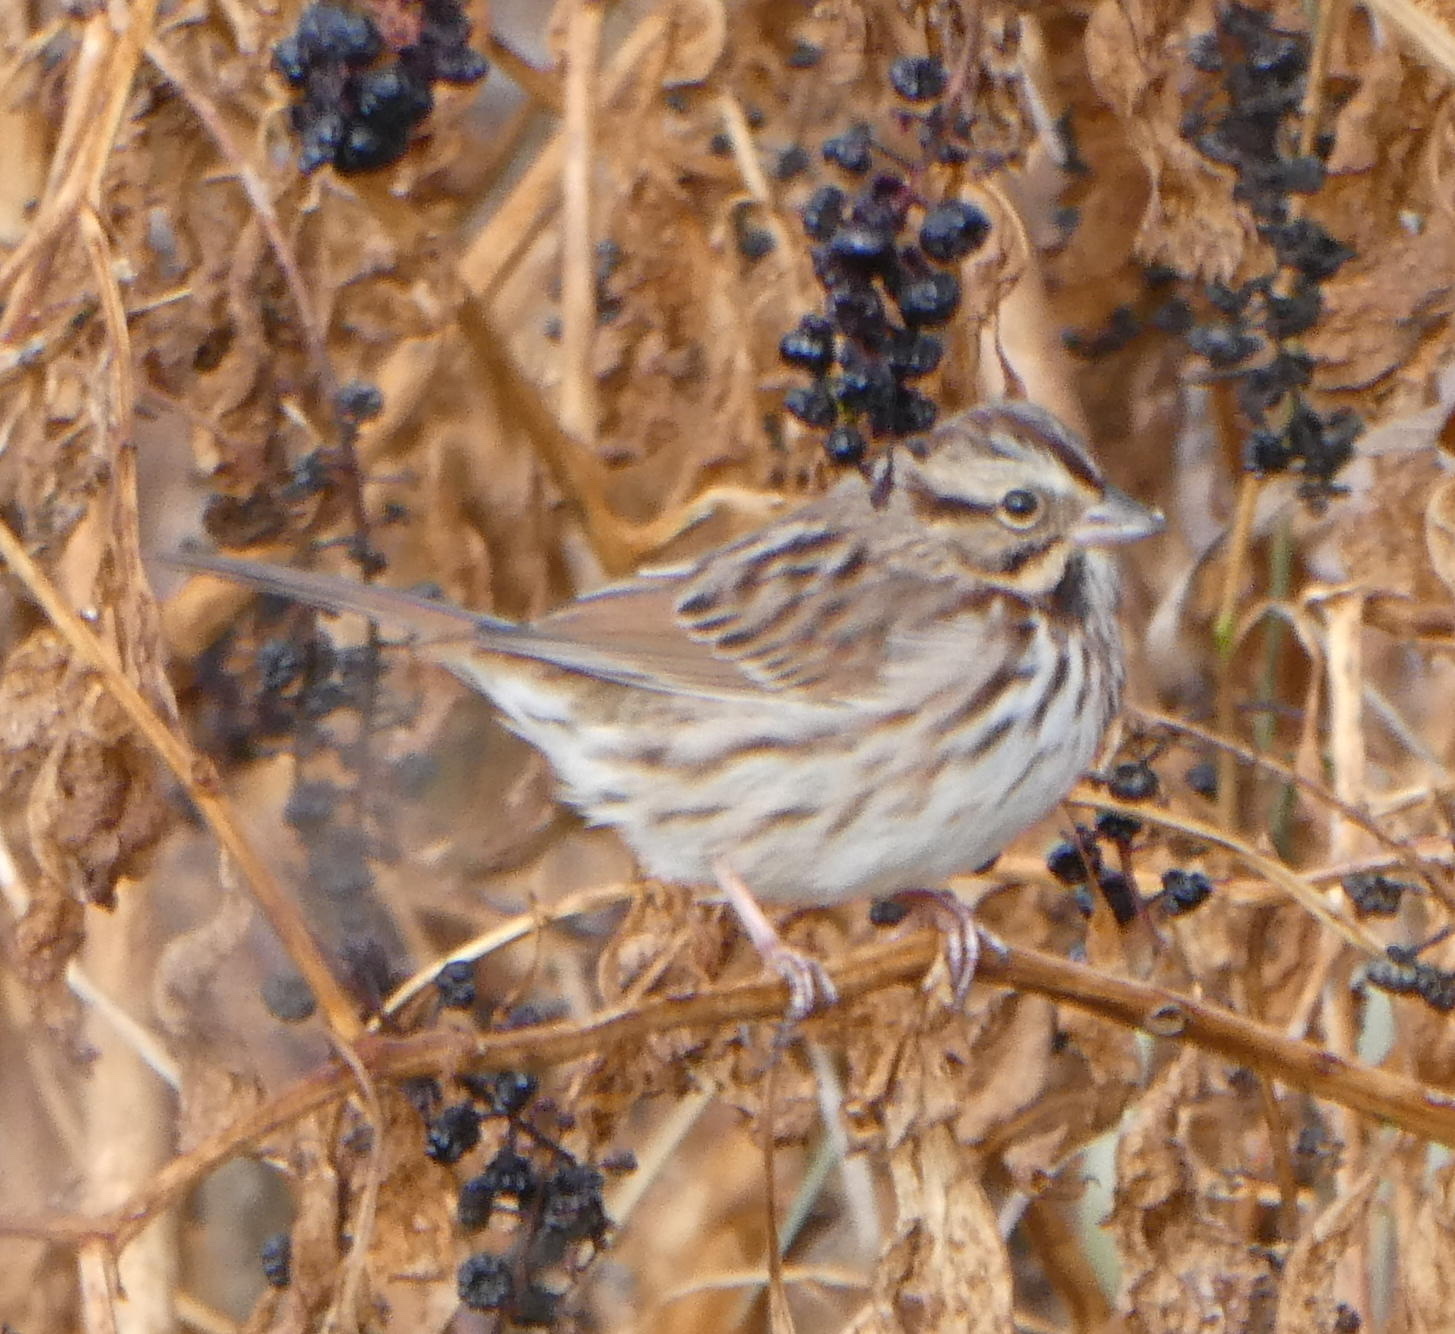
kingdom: Animalia
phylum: Chordata
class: Aves
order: Passeriformes
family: Passerellidae
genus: Melospiza
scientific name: Melospiza melodia
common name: Song sparrow
